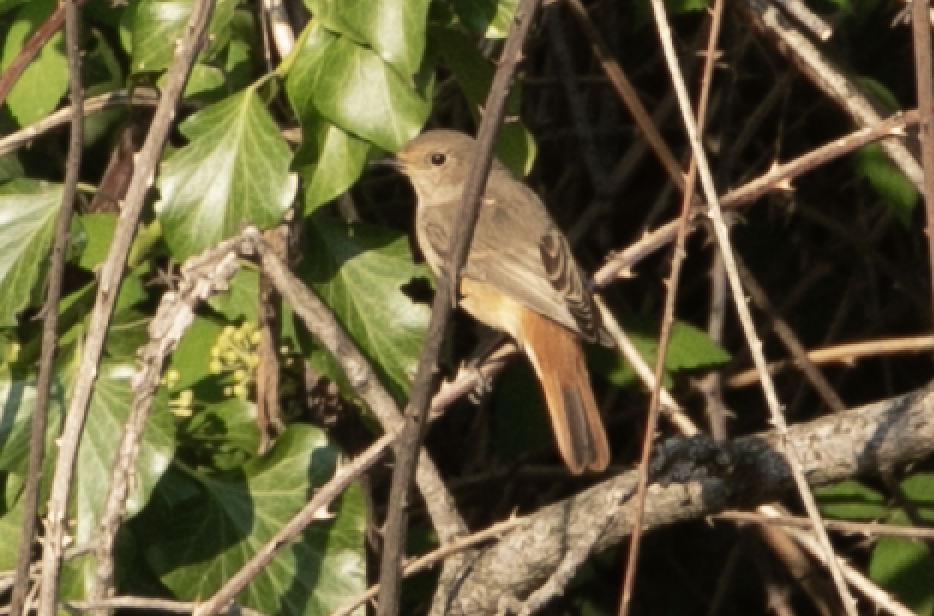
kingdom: Animalia
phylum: Chordata
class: Aves
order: Passeriformes
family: Muscicapidae
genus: Phoenicurus
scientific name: Phoenicurus phoenicurus
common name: Common redstart
